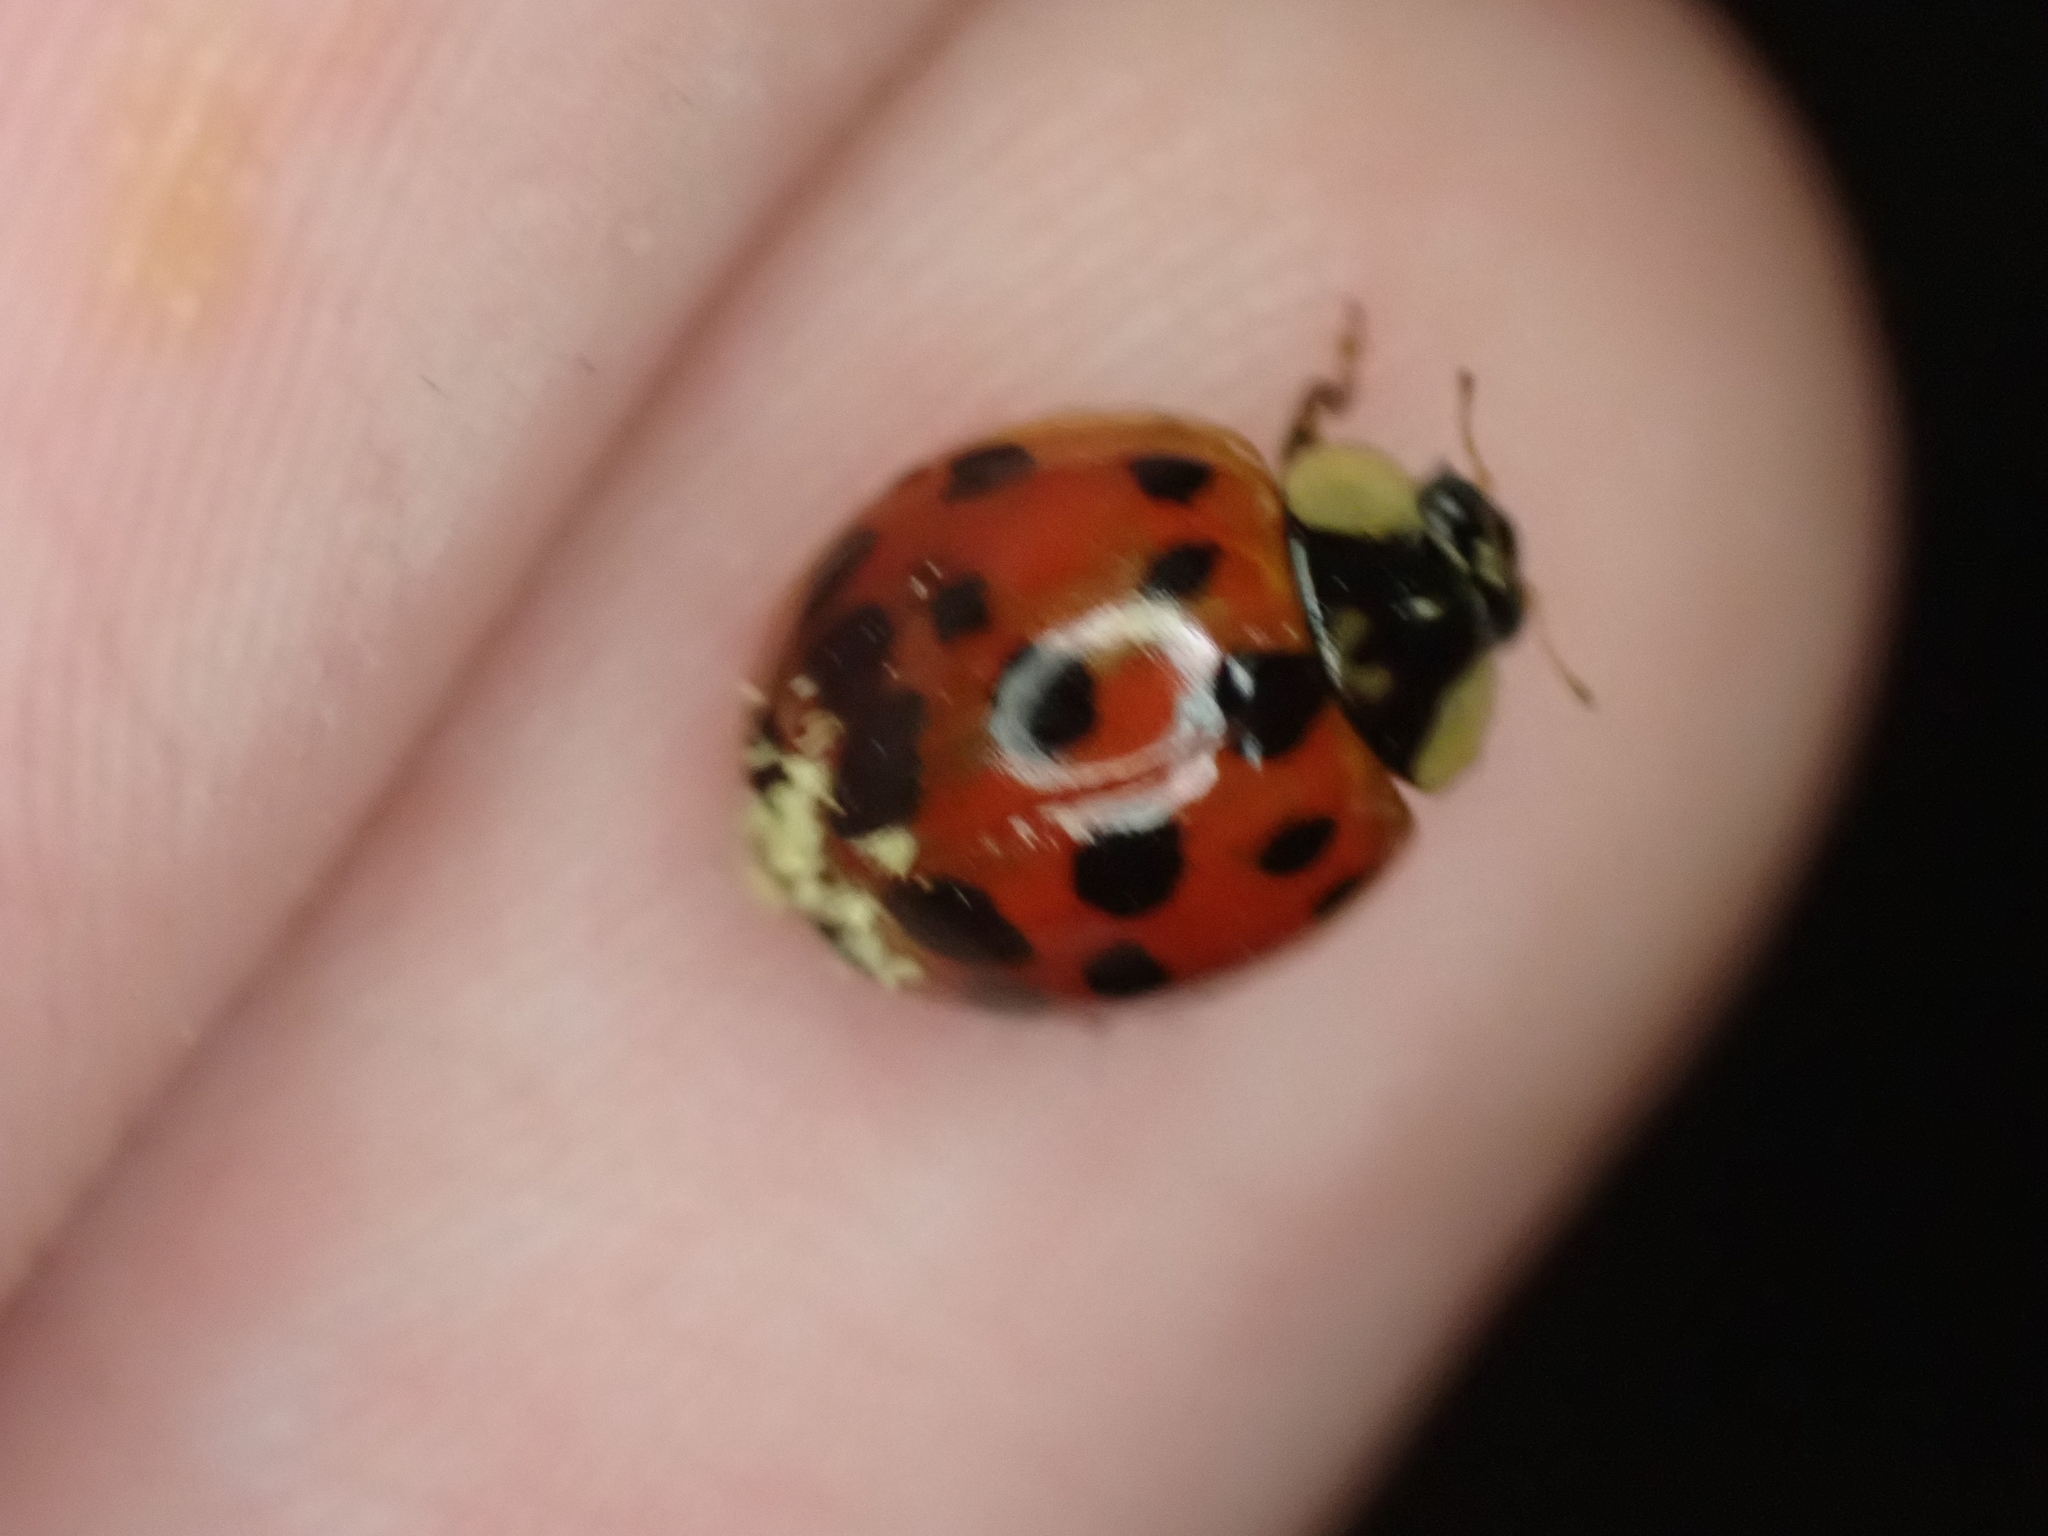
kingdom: Fungi
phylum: Ascomycota
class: Laboulbeniomycetes
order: Laboulbeniales
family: Laboulbeniaceae
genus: Hesperomyces
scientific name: Hesperomyces harmoniae
